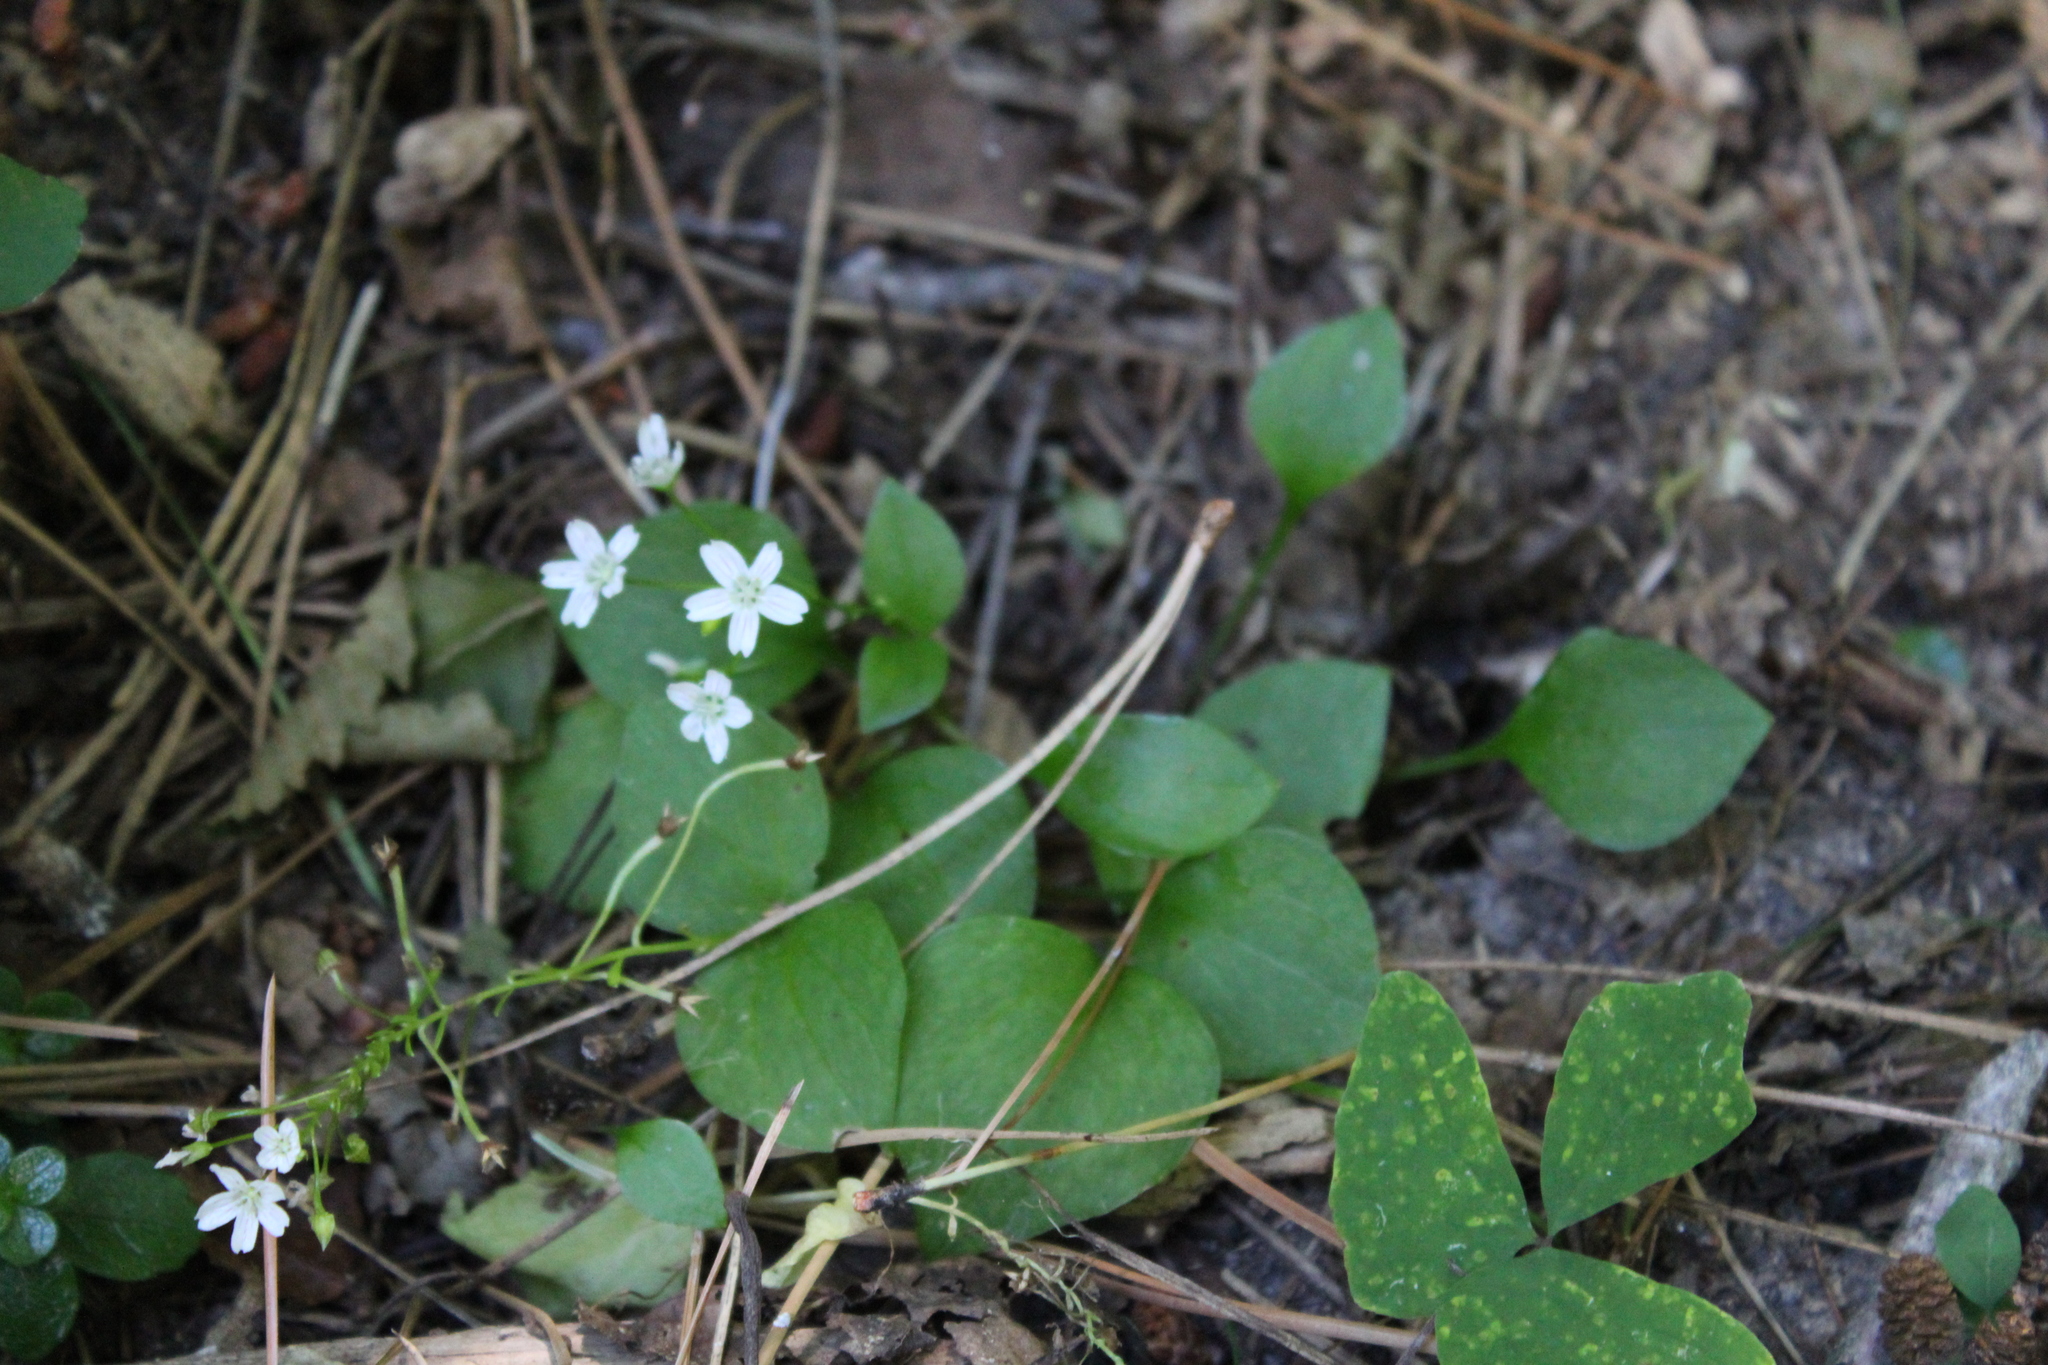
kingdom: Plantae
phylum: Tracheophyta
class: Magnoliopsida
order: Caryophyllales
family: Montiaceae
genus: Claytonia
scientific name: Claytonia sibirica
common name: Pink purslane
